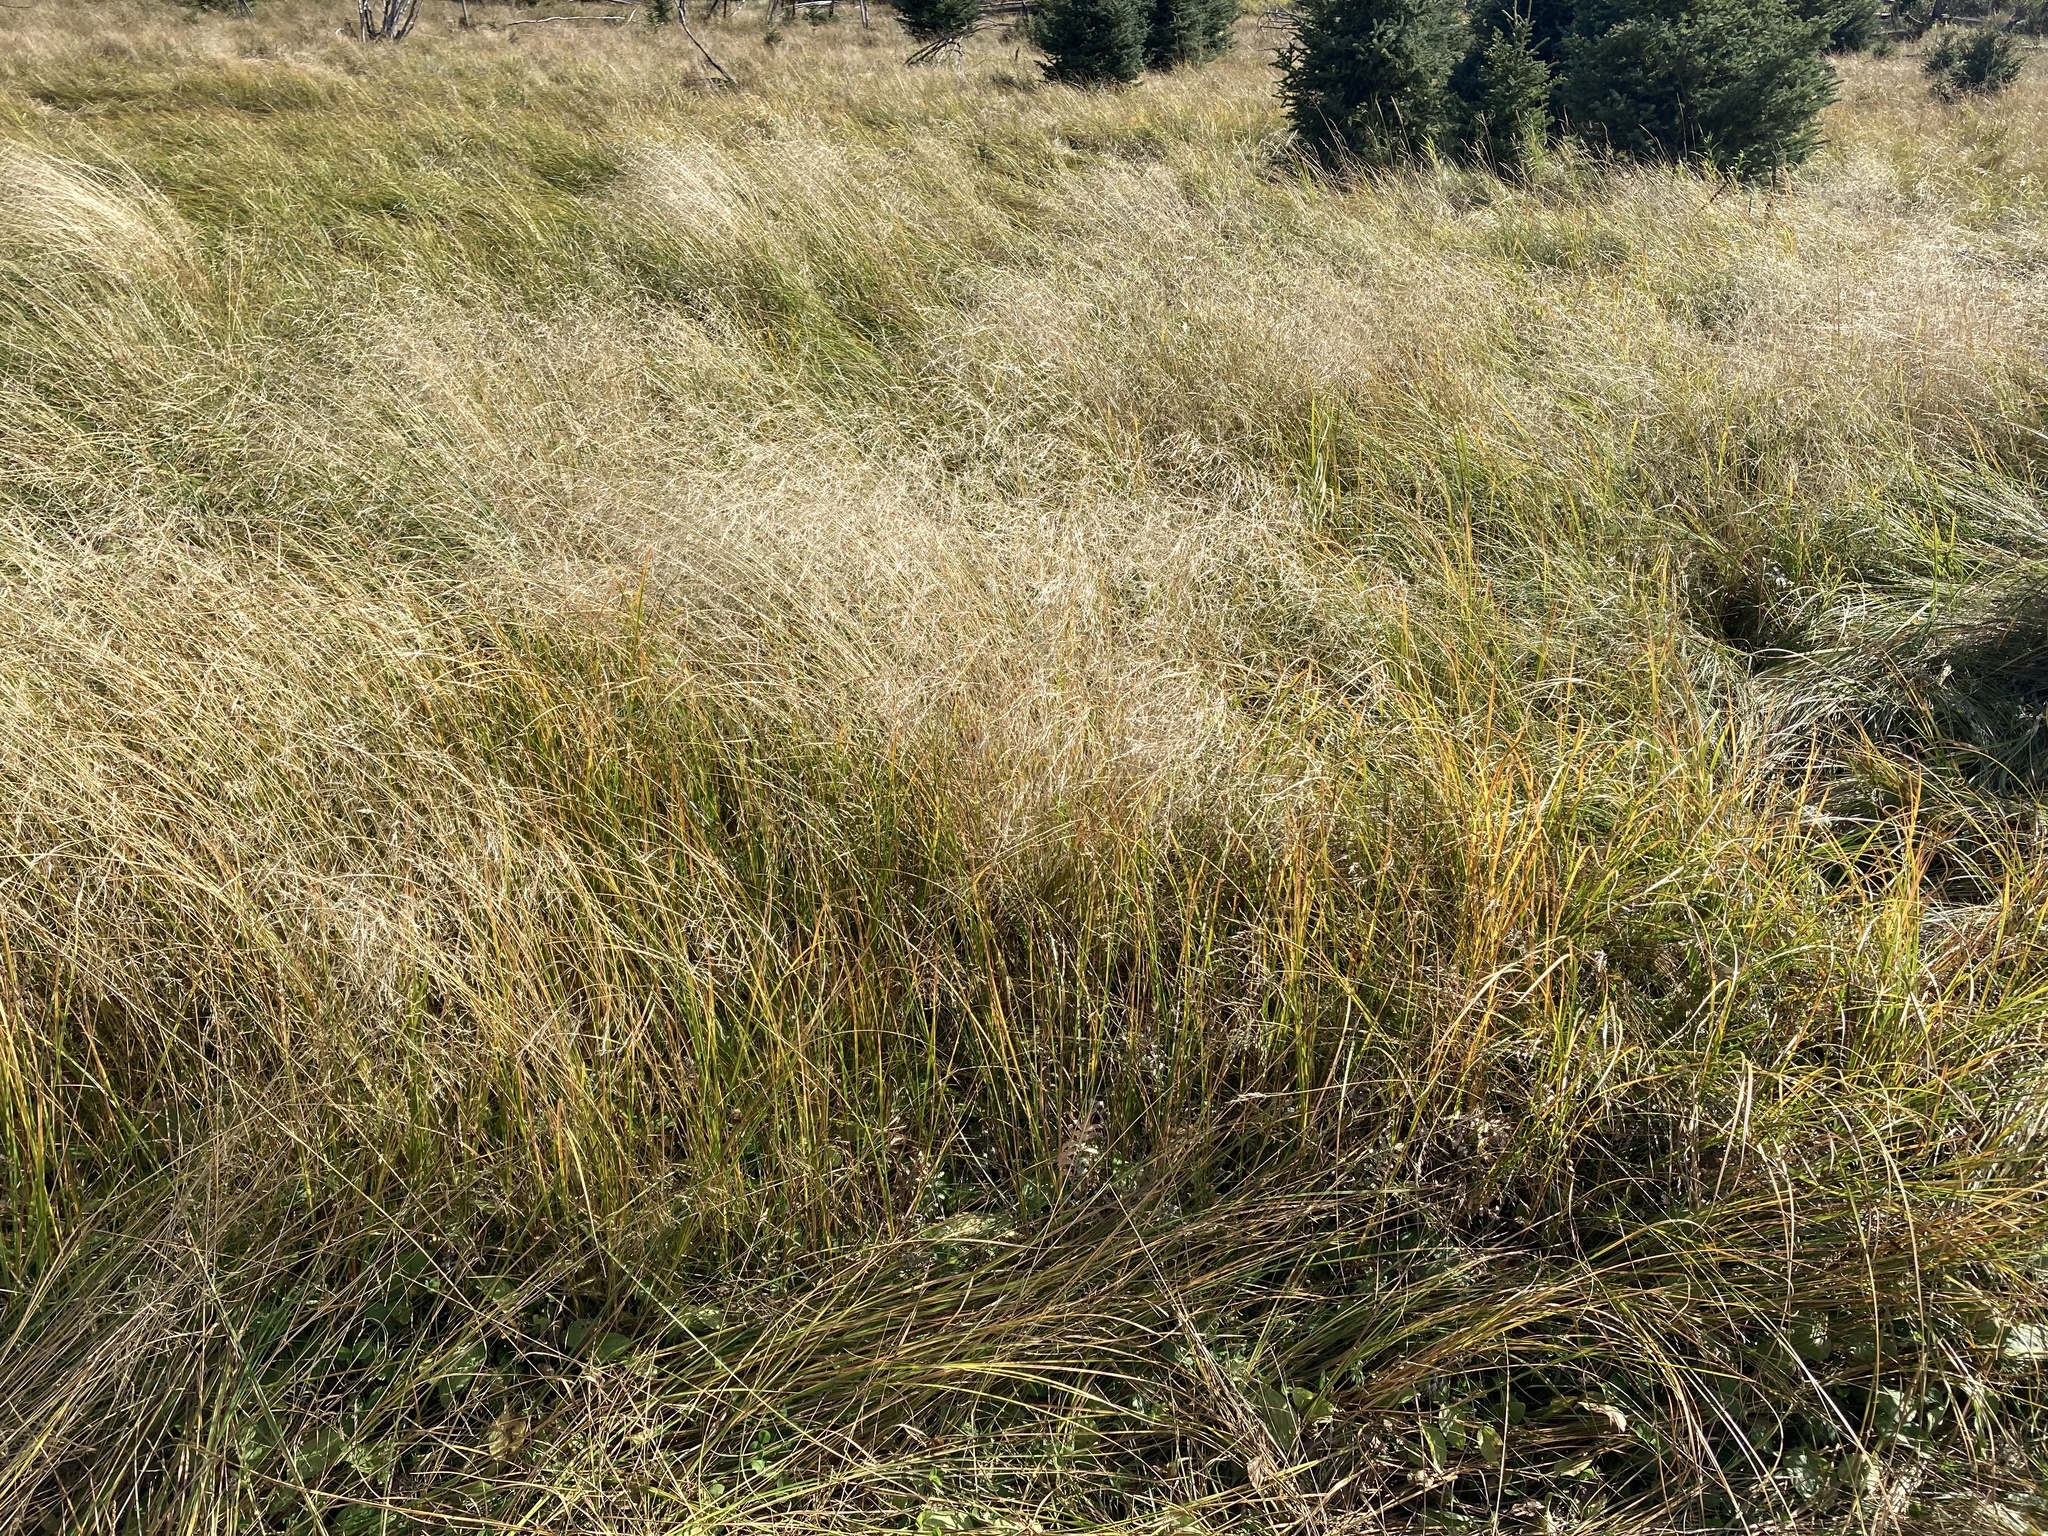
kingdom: Plantae
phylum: Tracheophyta
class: Liliopsida
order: Poales
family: Poaceae
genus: Deschampsia
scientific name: Deschampsia cespitosa
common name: Tufted hair-grass
